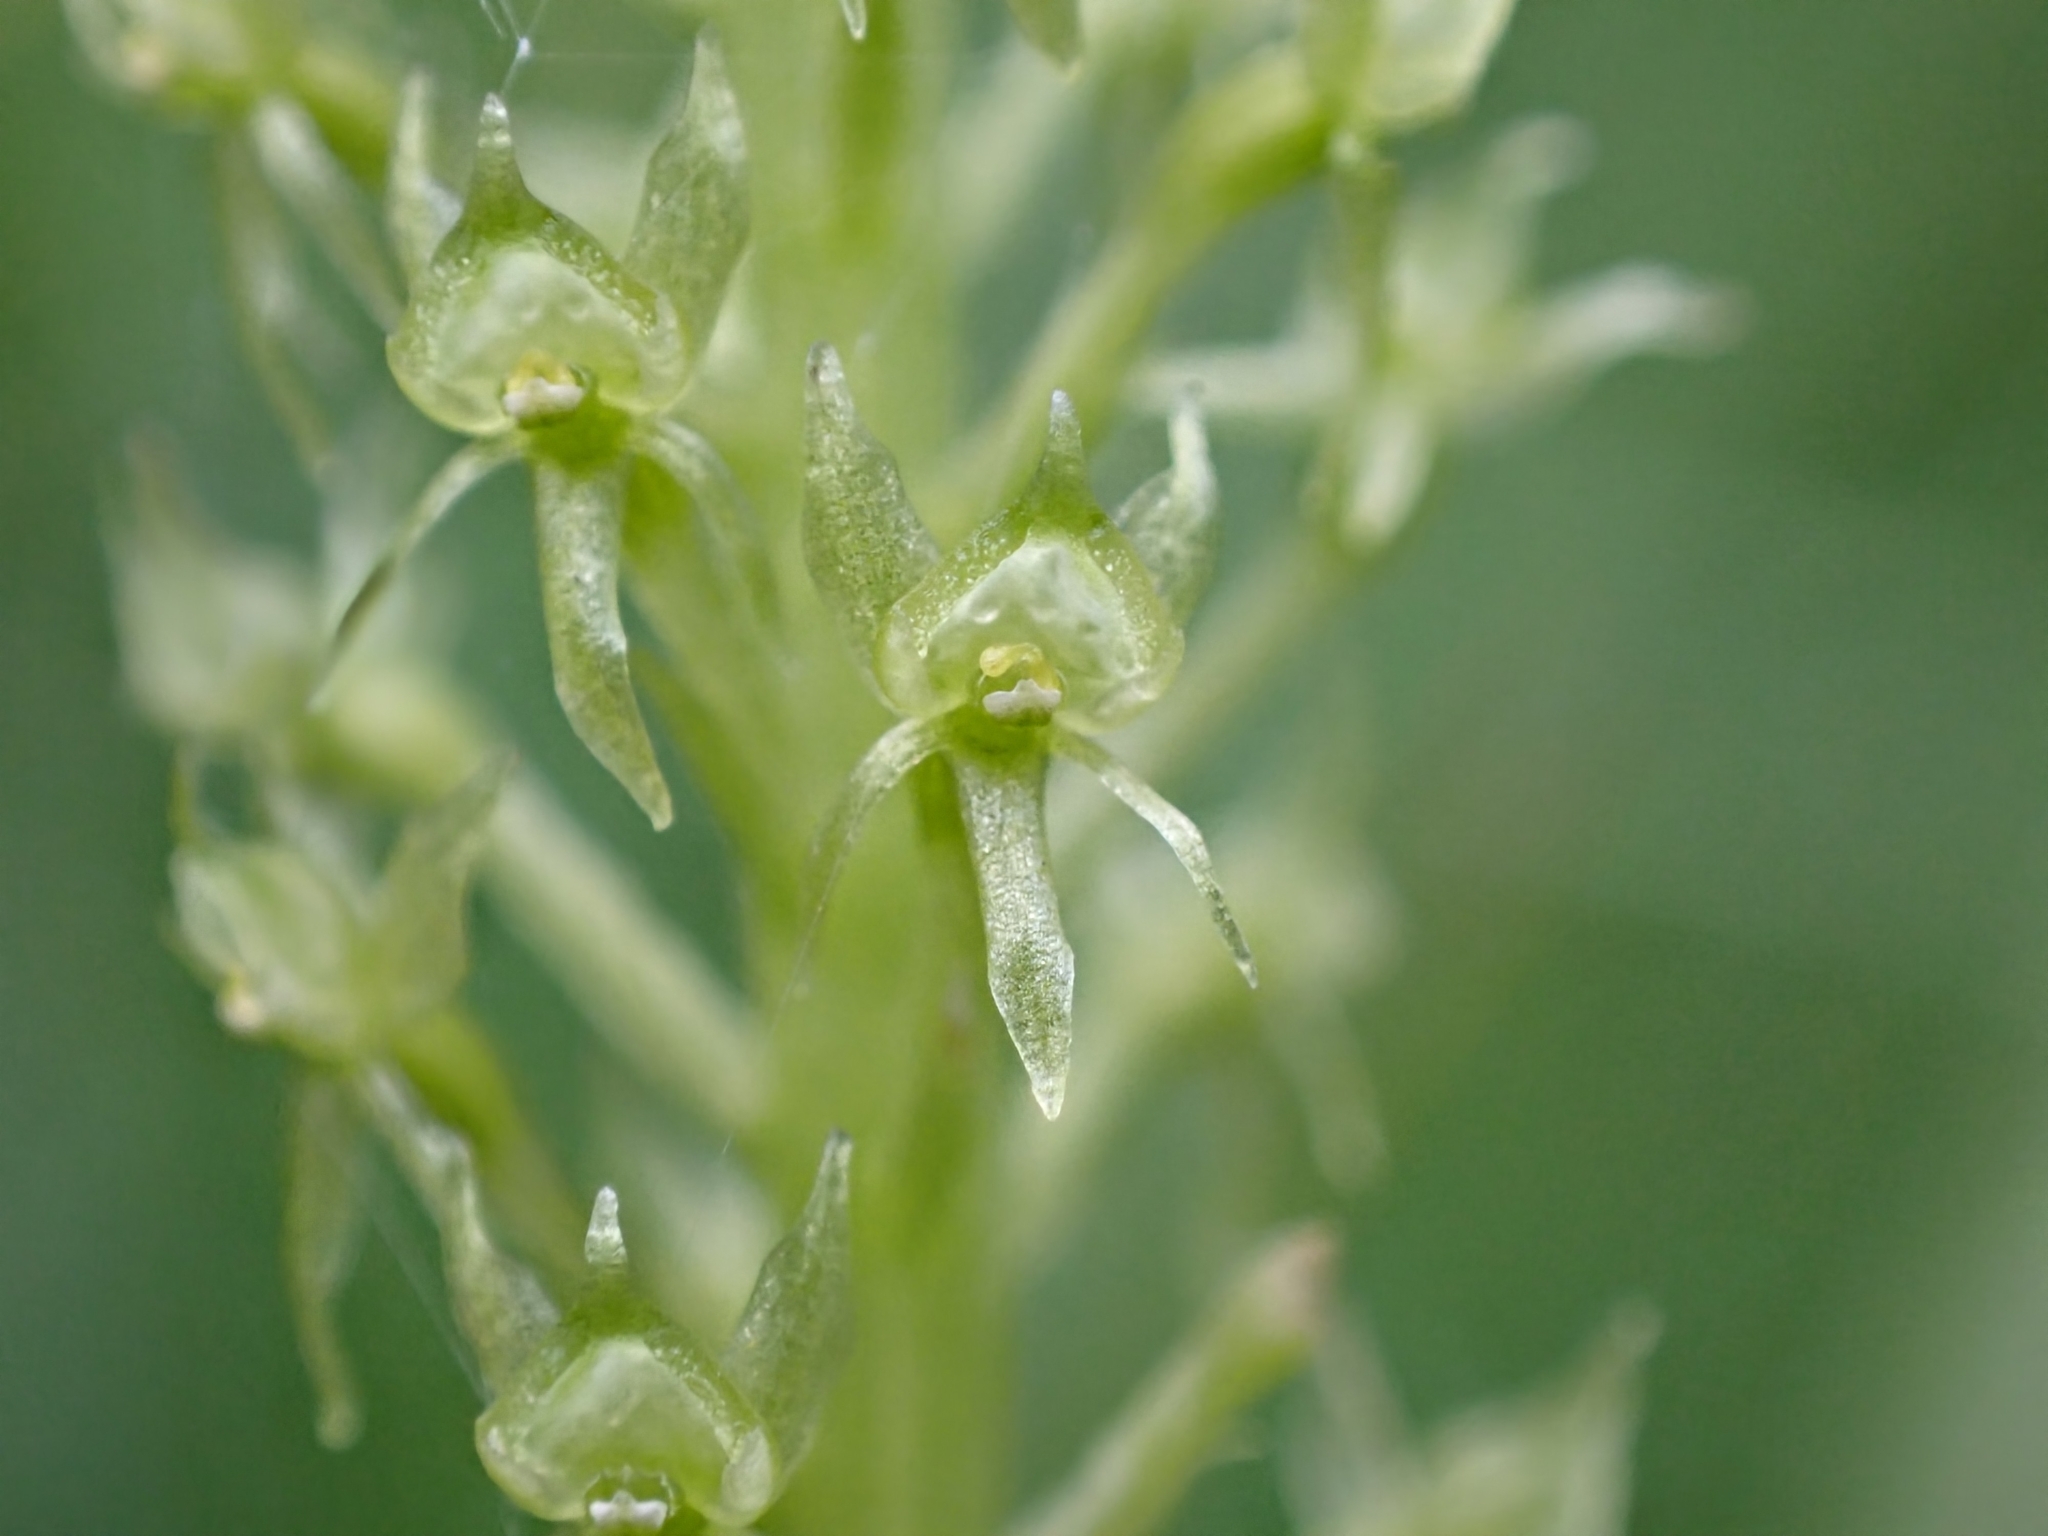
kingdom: Plantae
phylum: Tracheophyta
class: Liliopsida
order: Asparagales
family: Orchidaceae
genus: Malaxis
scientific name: Malaxis monophyllos
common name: White adder's-mouth
